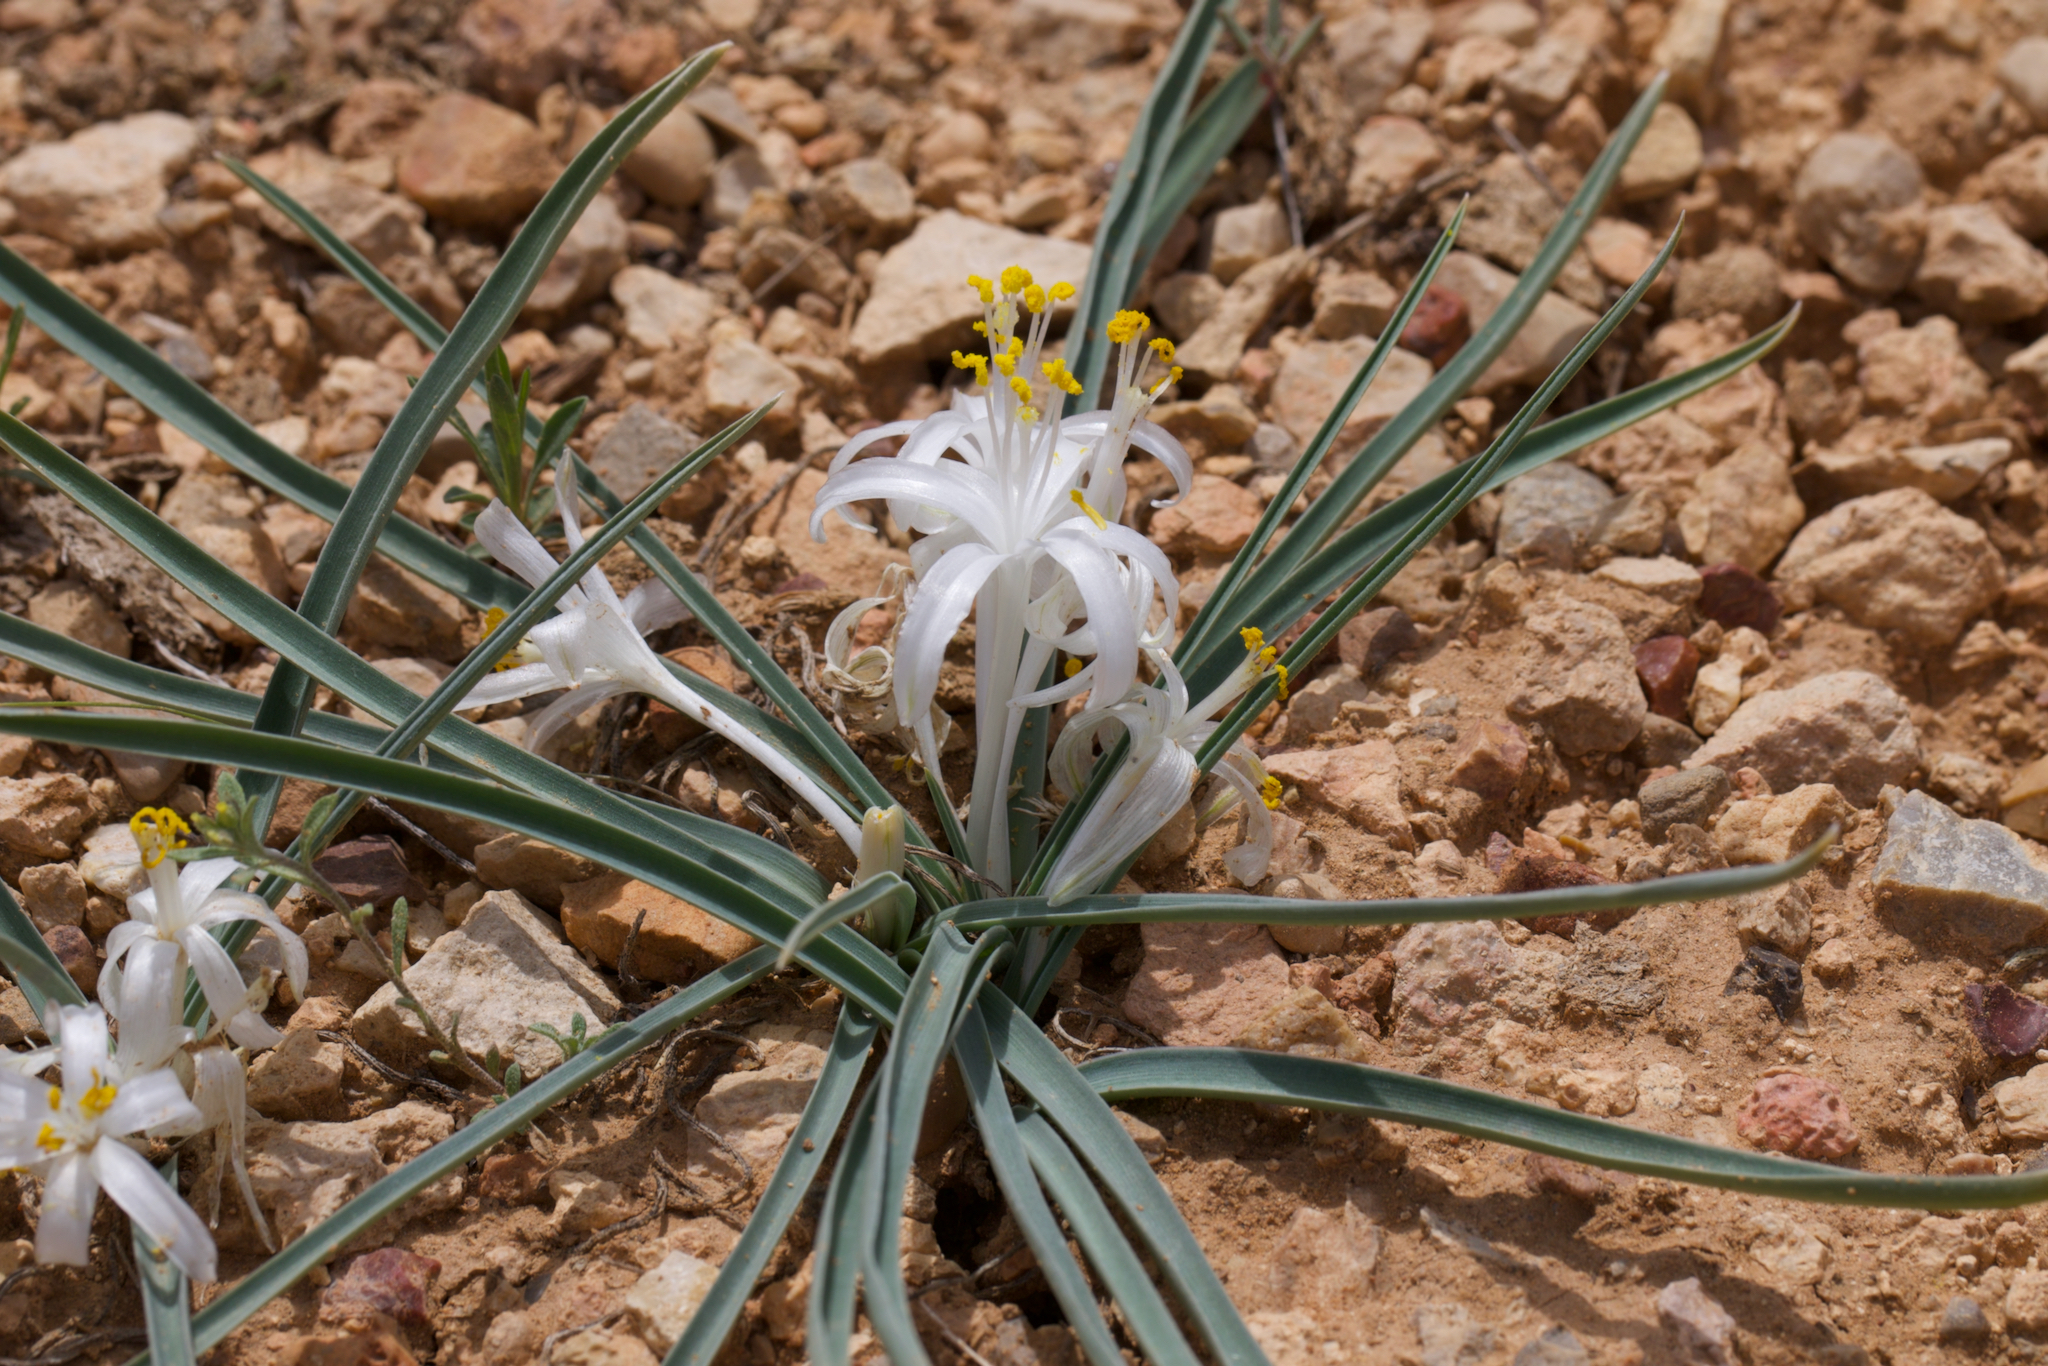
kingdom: Plantae
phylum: Tracheophyta
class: Liliopsida
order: Asparagales
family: Asparagaceae
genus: Leucocrinum
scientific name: Leucocrinum montanum
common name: Mountain-lily
